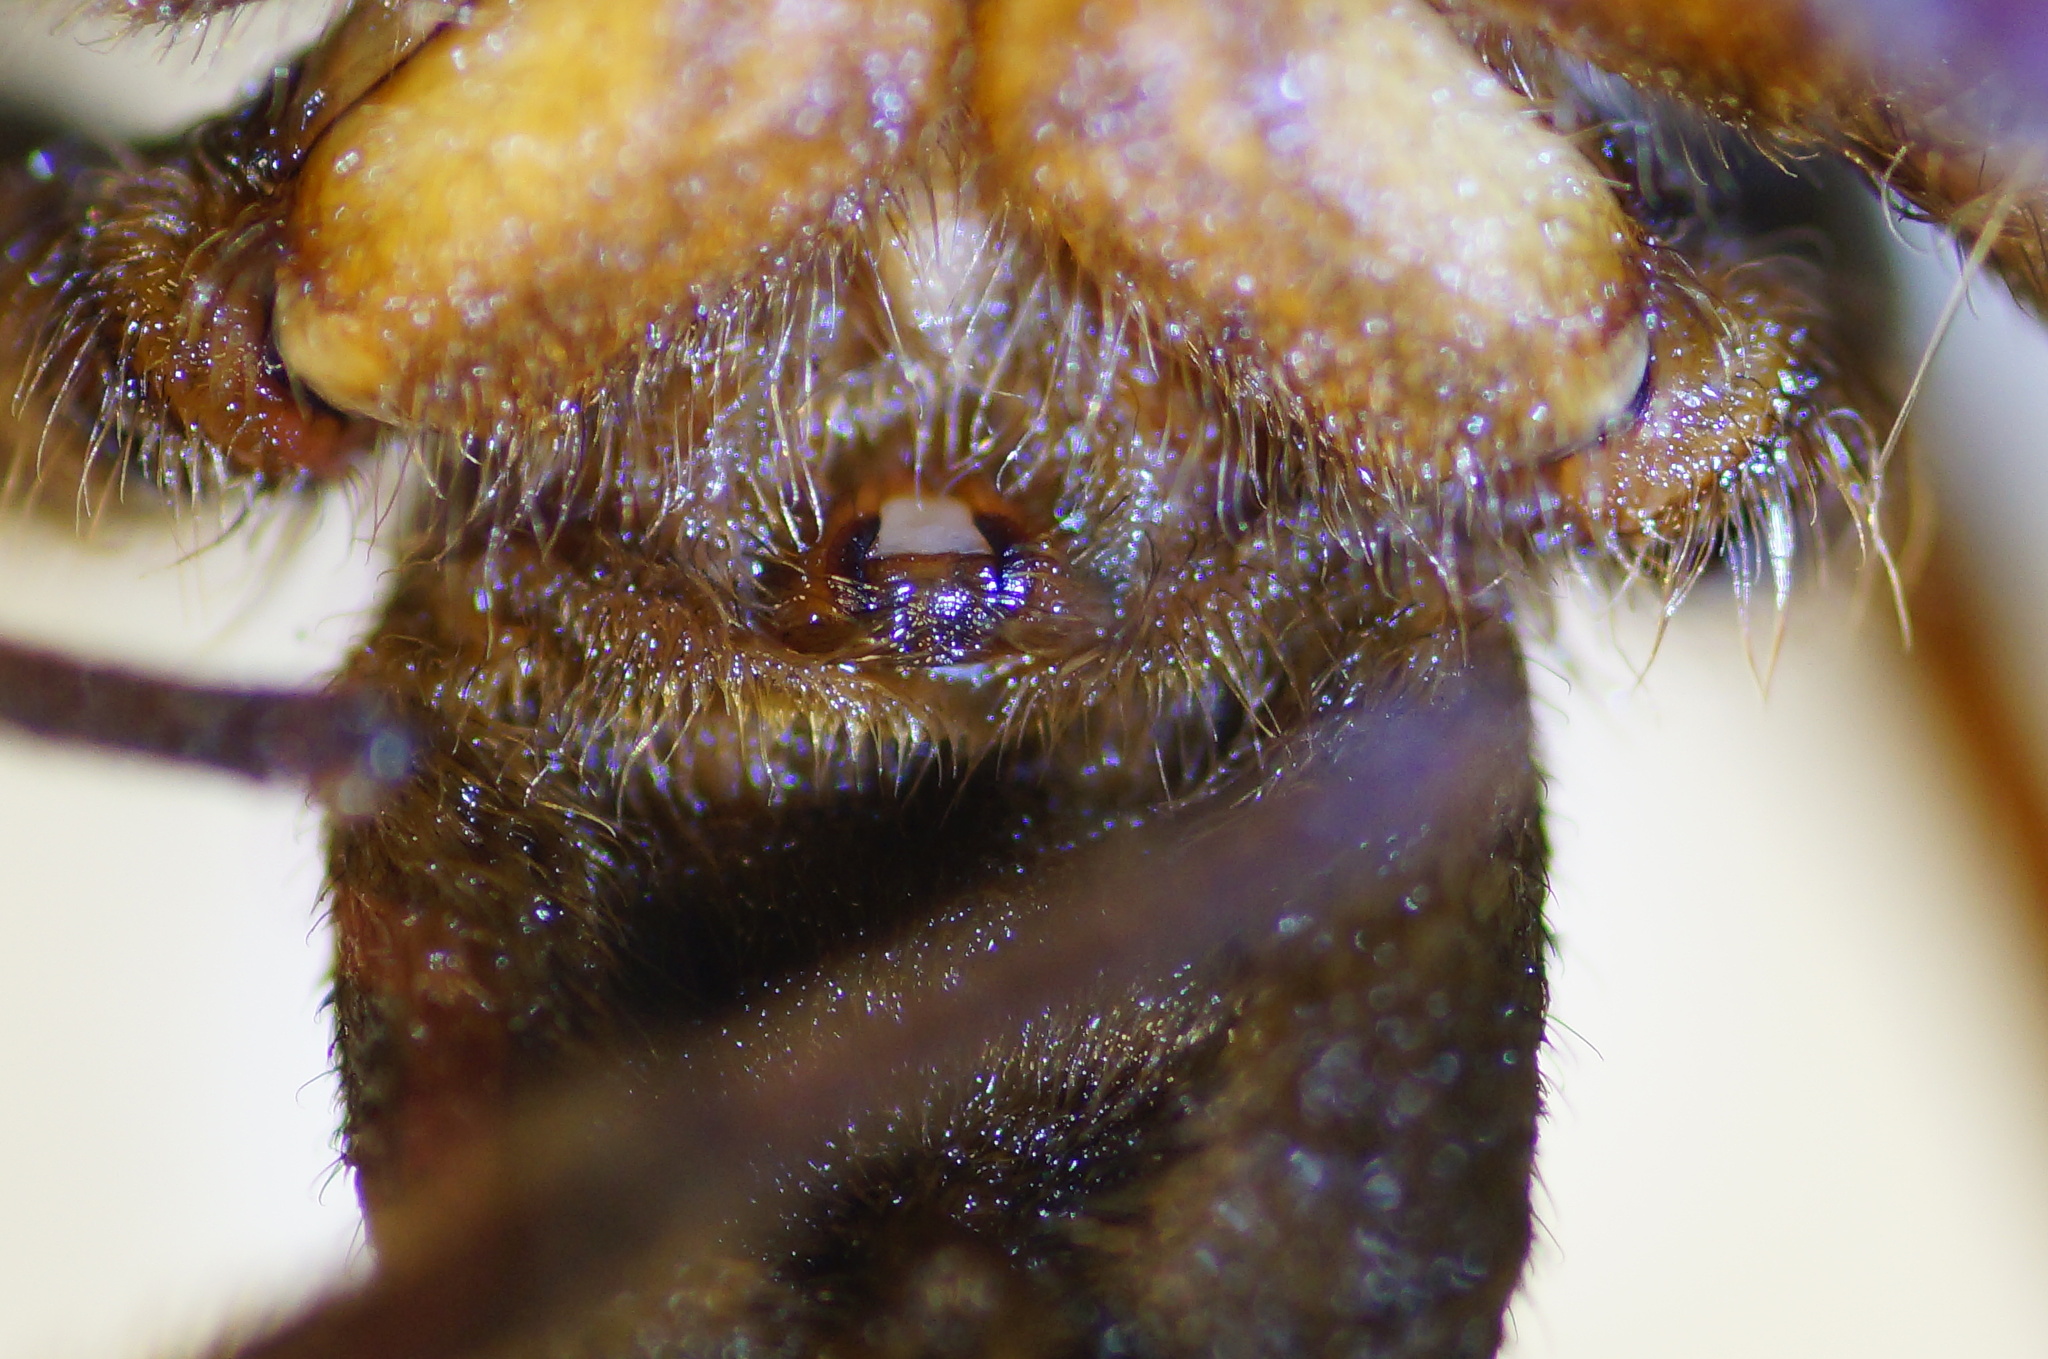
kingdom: Animalia
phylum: Arthropoda
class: Arachnida
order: Araneae
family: Pisauridae
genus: Dolomedes
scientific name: Dolomedes plantarius
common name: Fen raft spider
